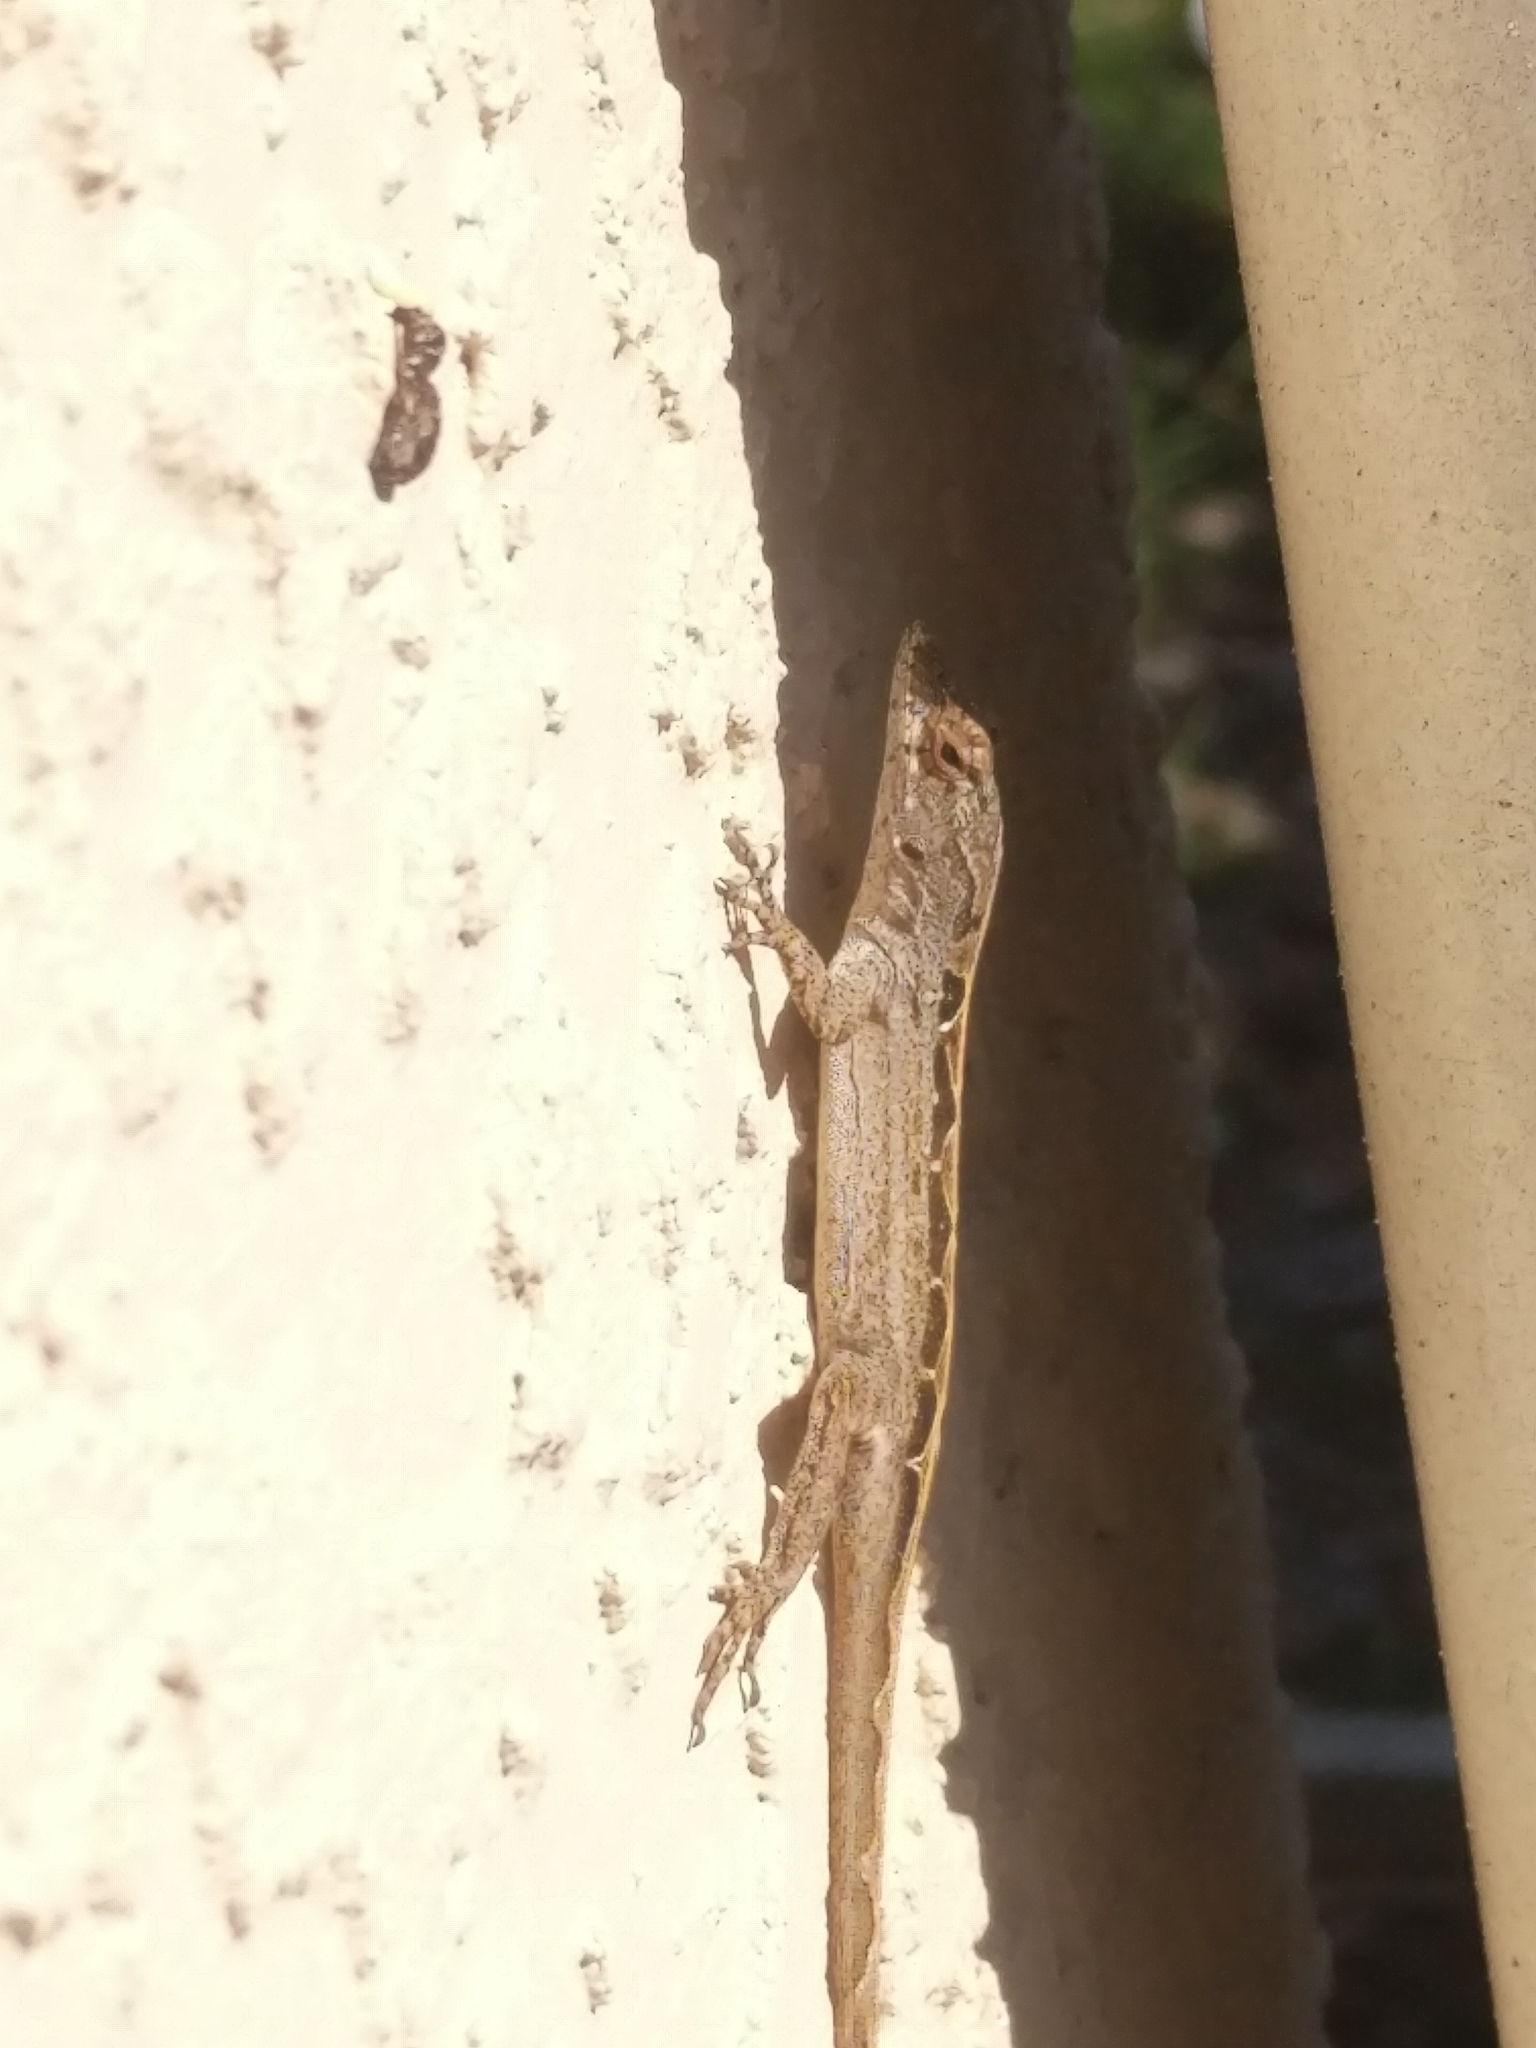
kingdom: Animalia
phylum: Chordata
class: Squamata
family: Dactyloidae
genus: Anolis
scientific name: Anolis sagrei
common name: Brown anole
